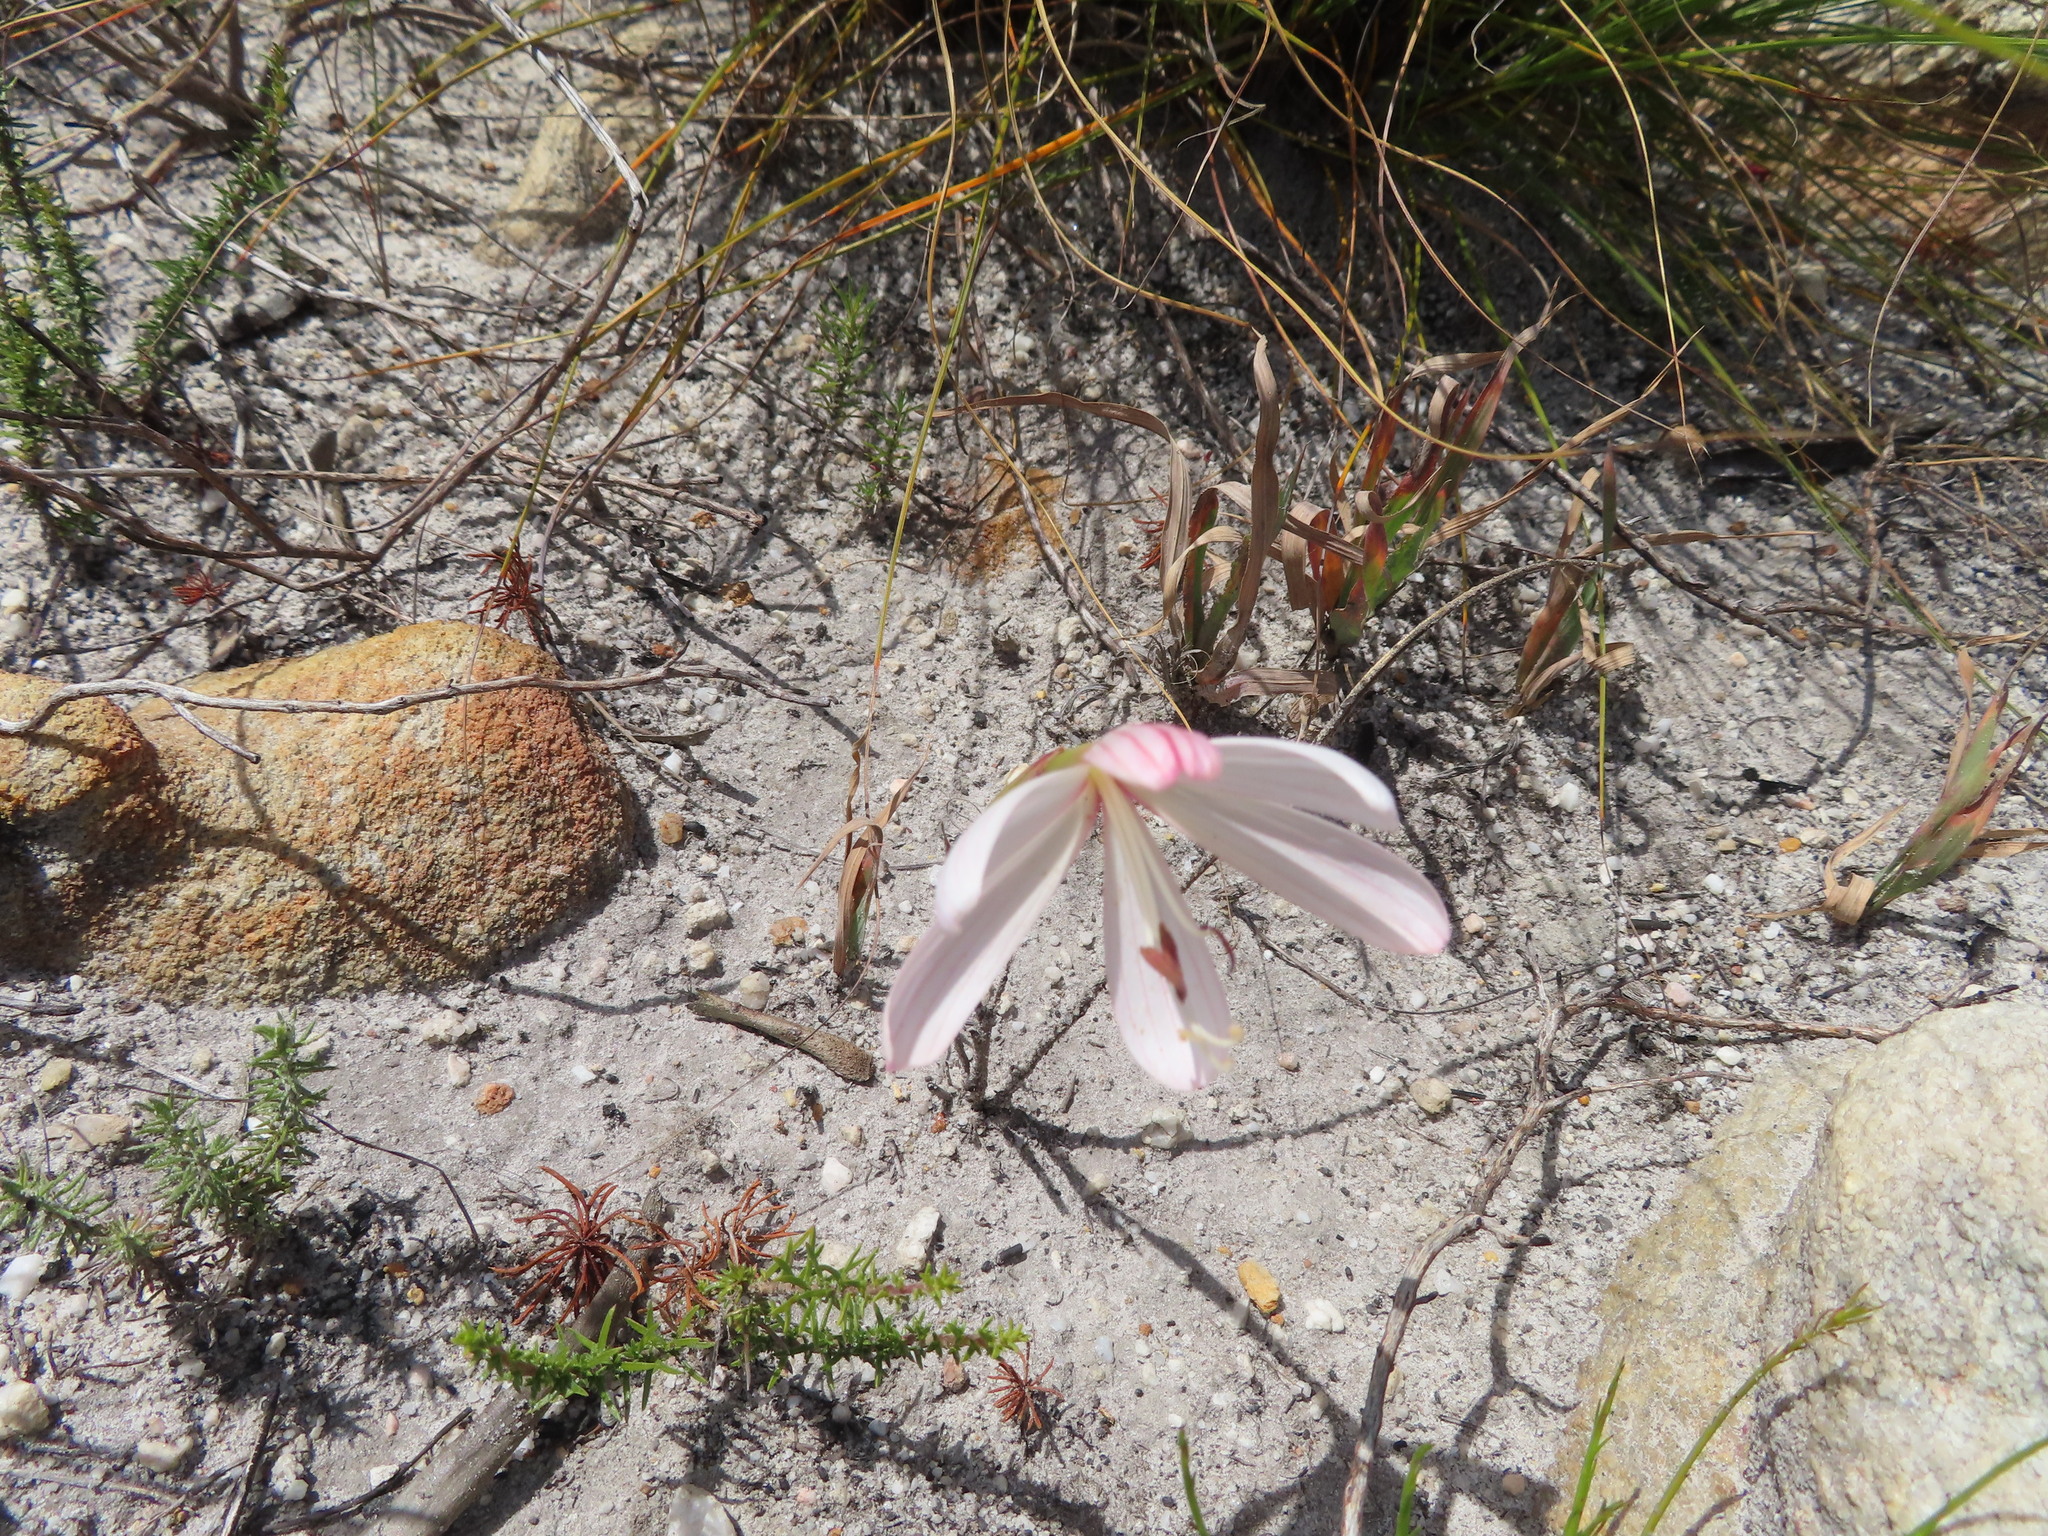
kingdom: Plantae
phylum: Tracheophyta
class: Liliopsida
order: Asparagales
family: Iridaceae
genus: Geissorhiza
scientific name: Geissorhiza schinzii
